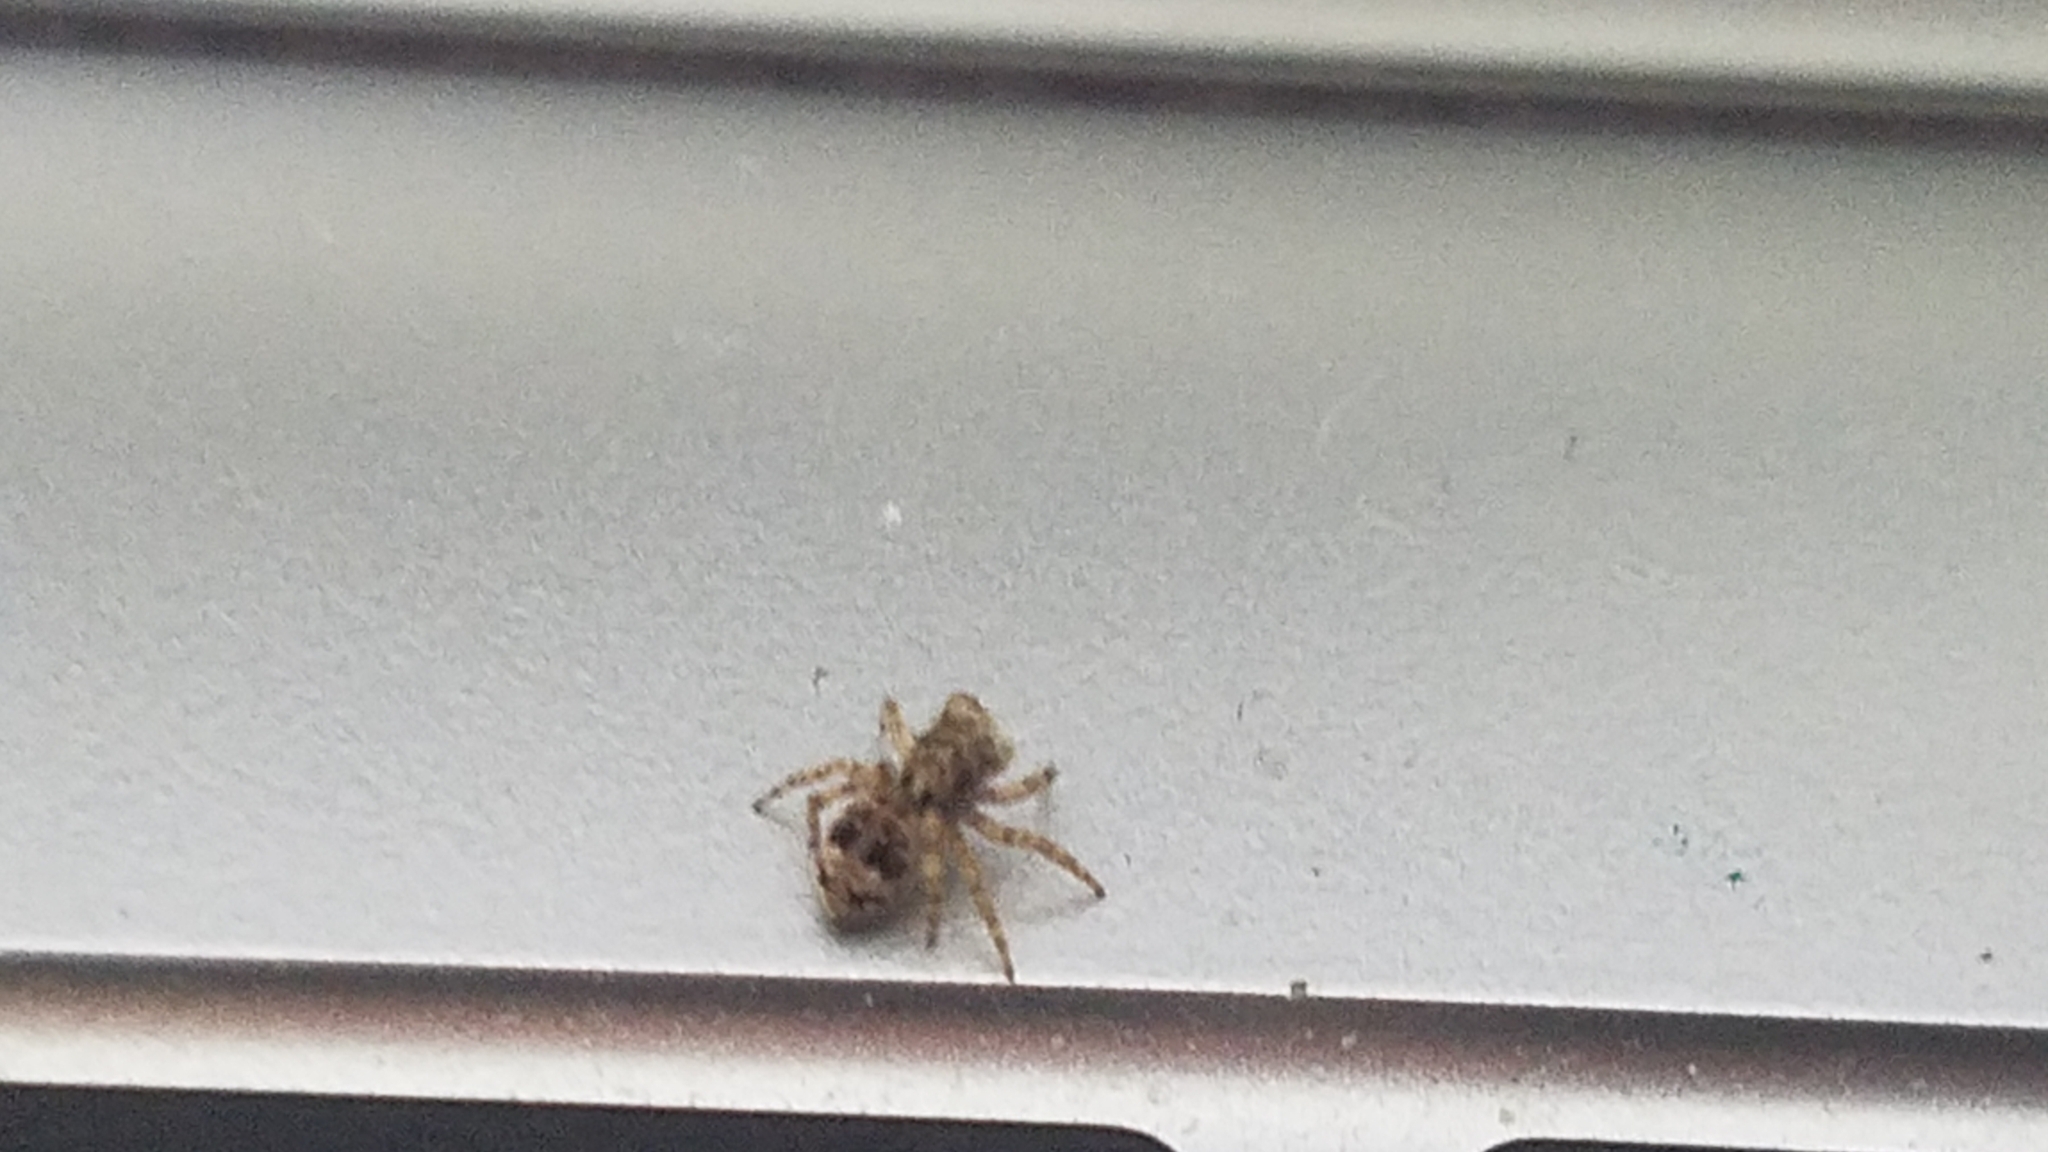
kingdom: Animalia
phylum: Arthropoda
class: Arachnida
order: Araneae
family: Salticidae
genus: Attulus
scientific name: Attulus fasciger
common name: Asiatic wall jumping spider
